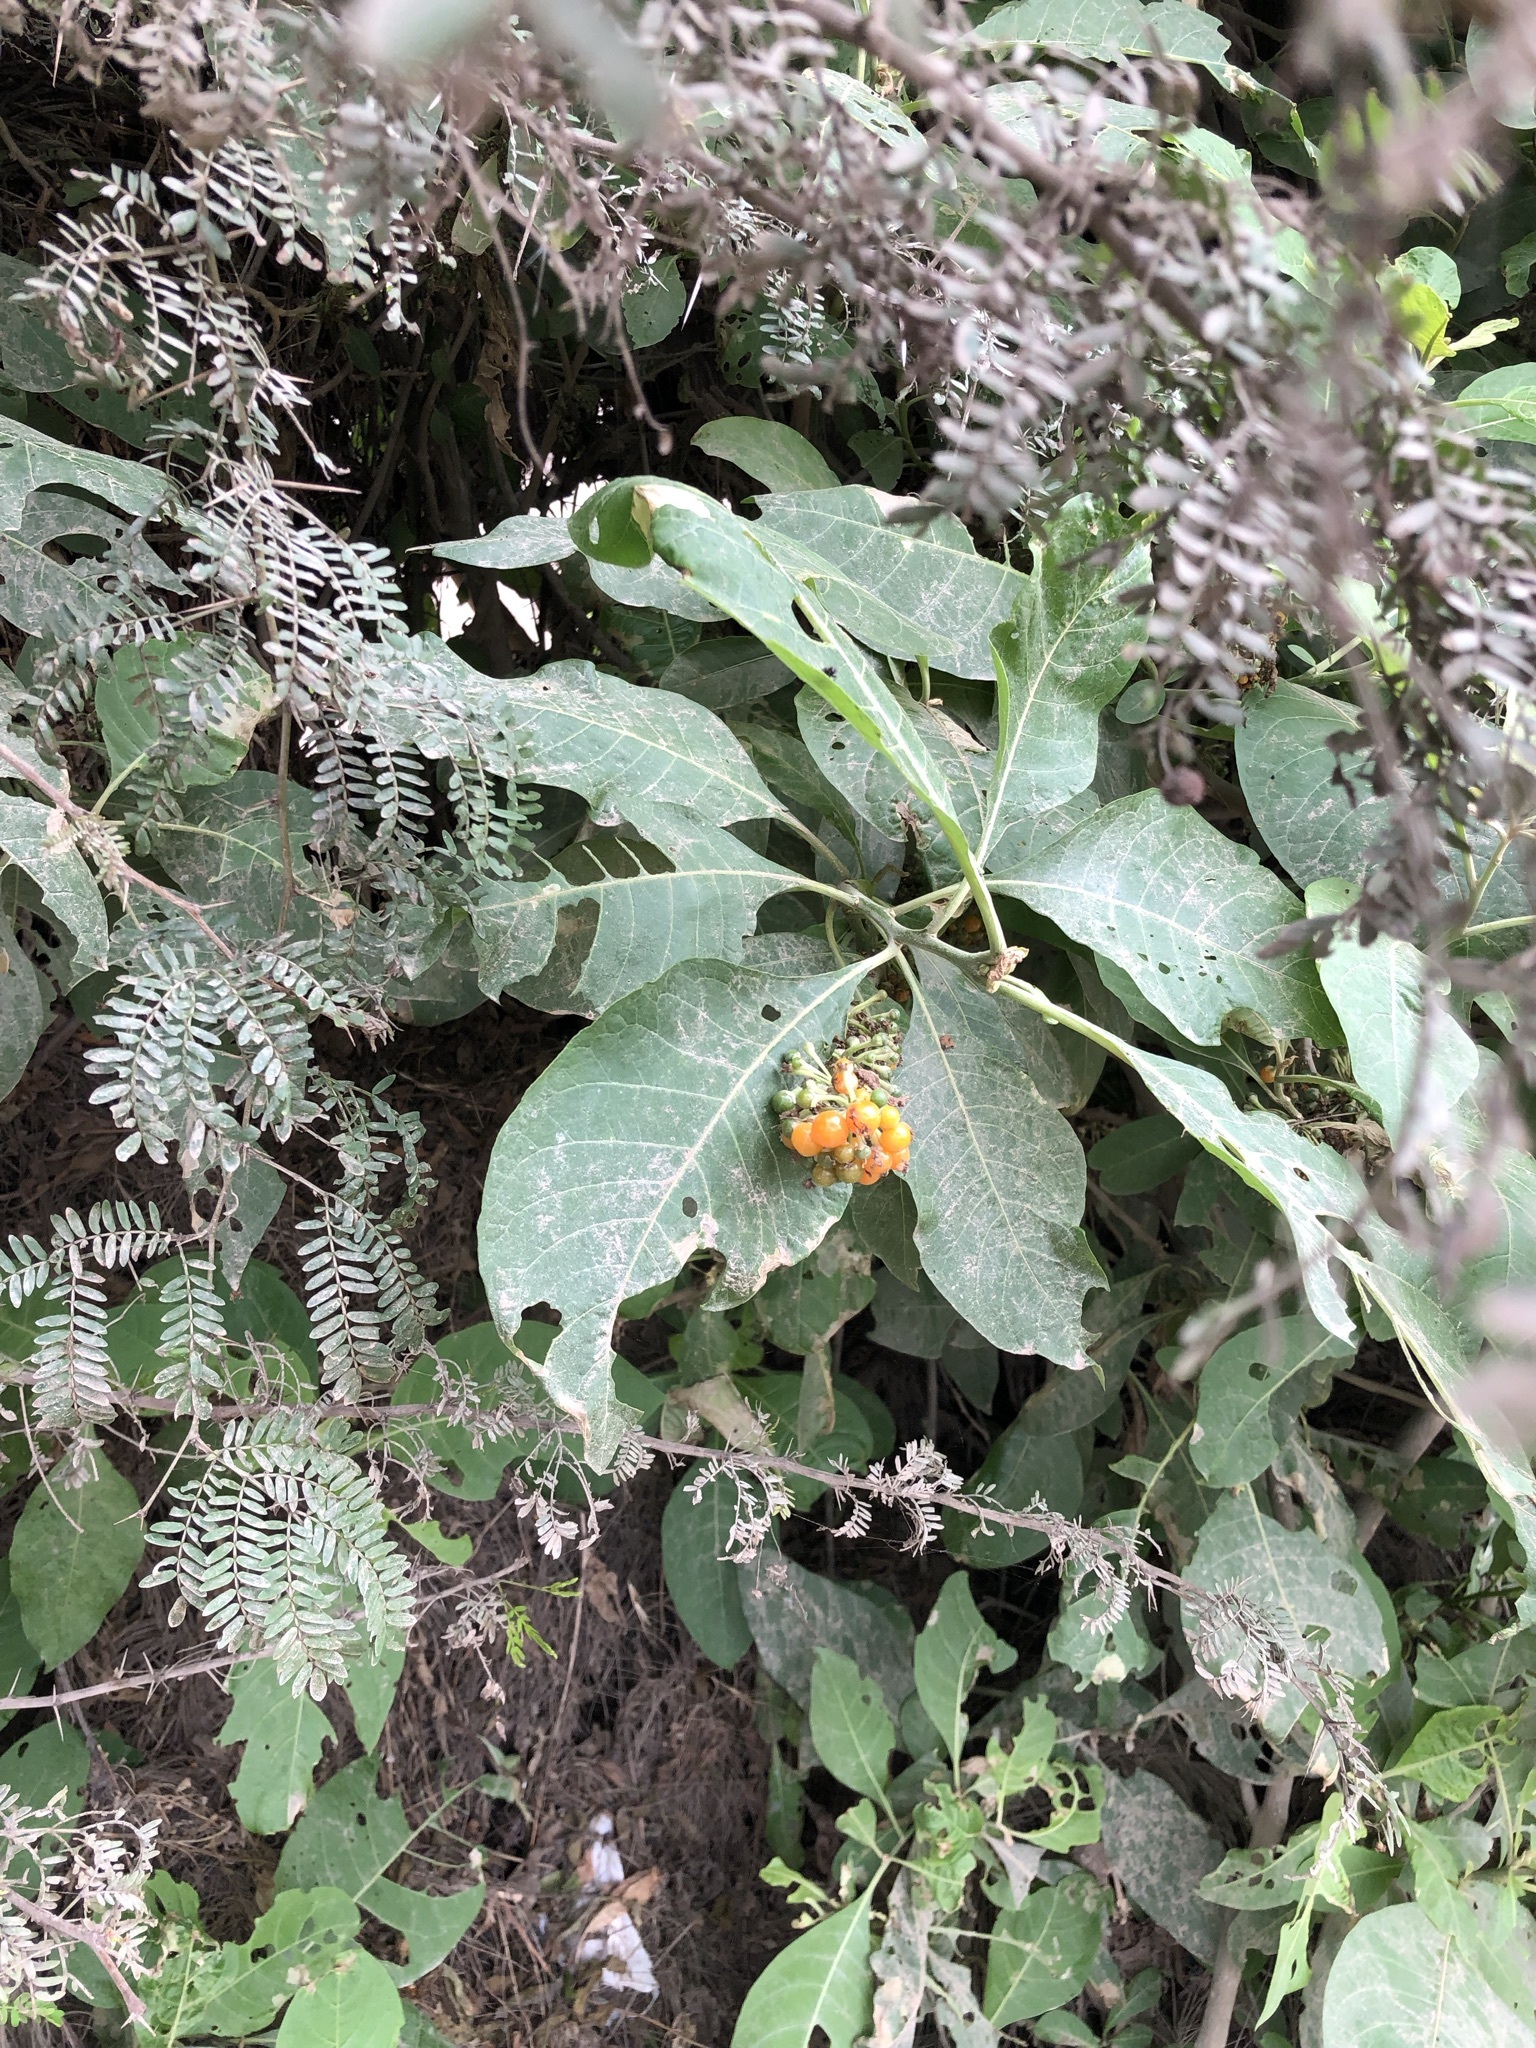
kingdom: Plantae
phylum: Tracheophyta
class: Magnoliopsida
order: Solanales
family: Solanaceae
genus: Iochroma
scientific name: Iochroma arborescens
